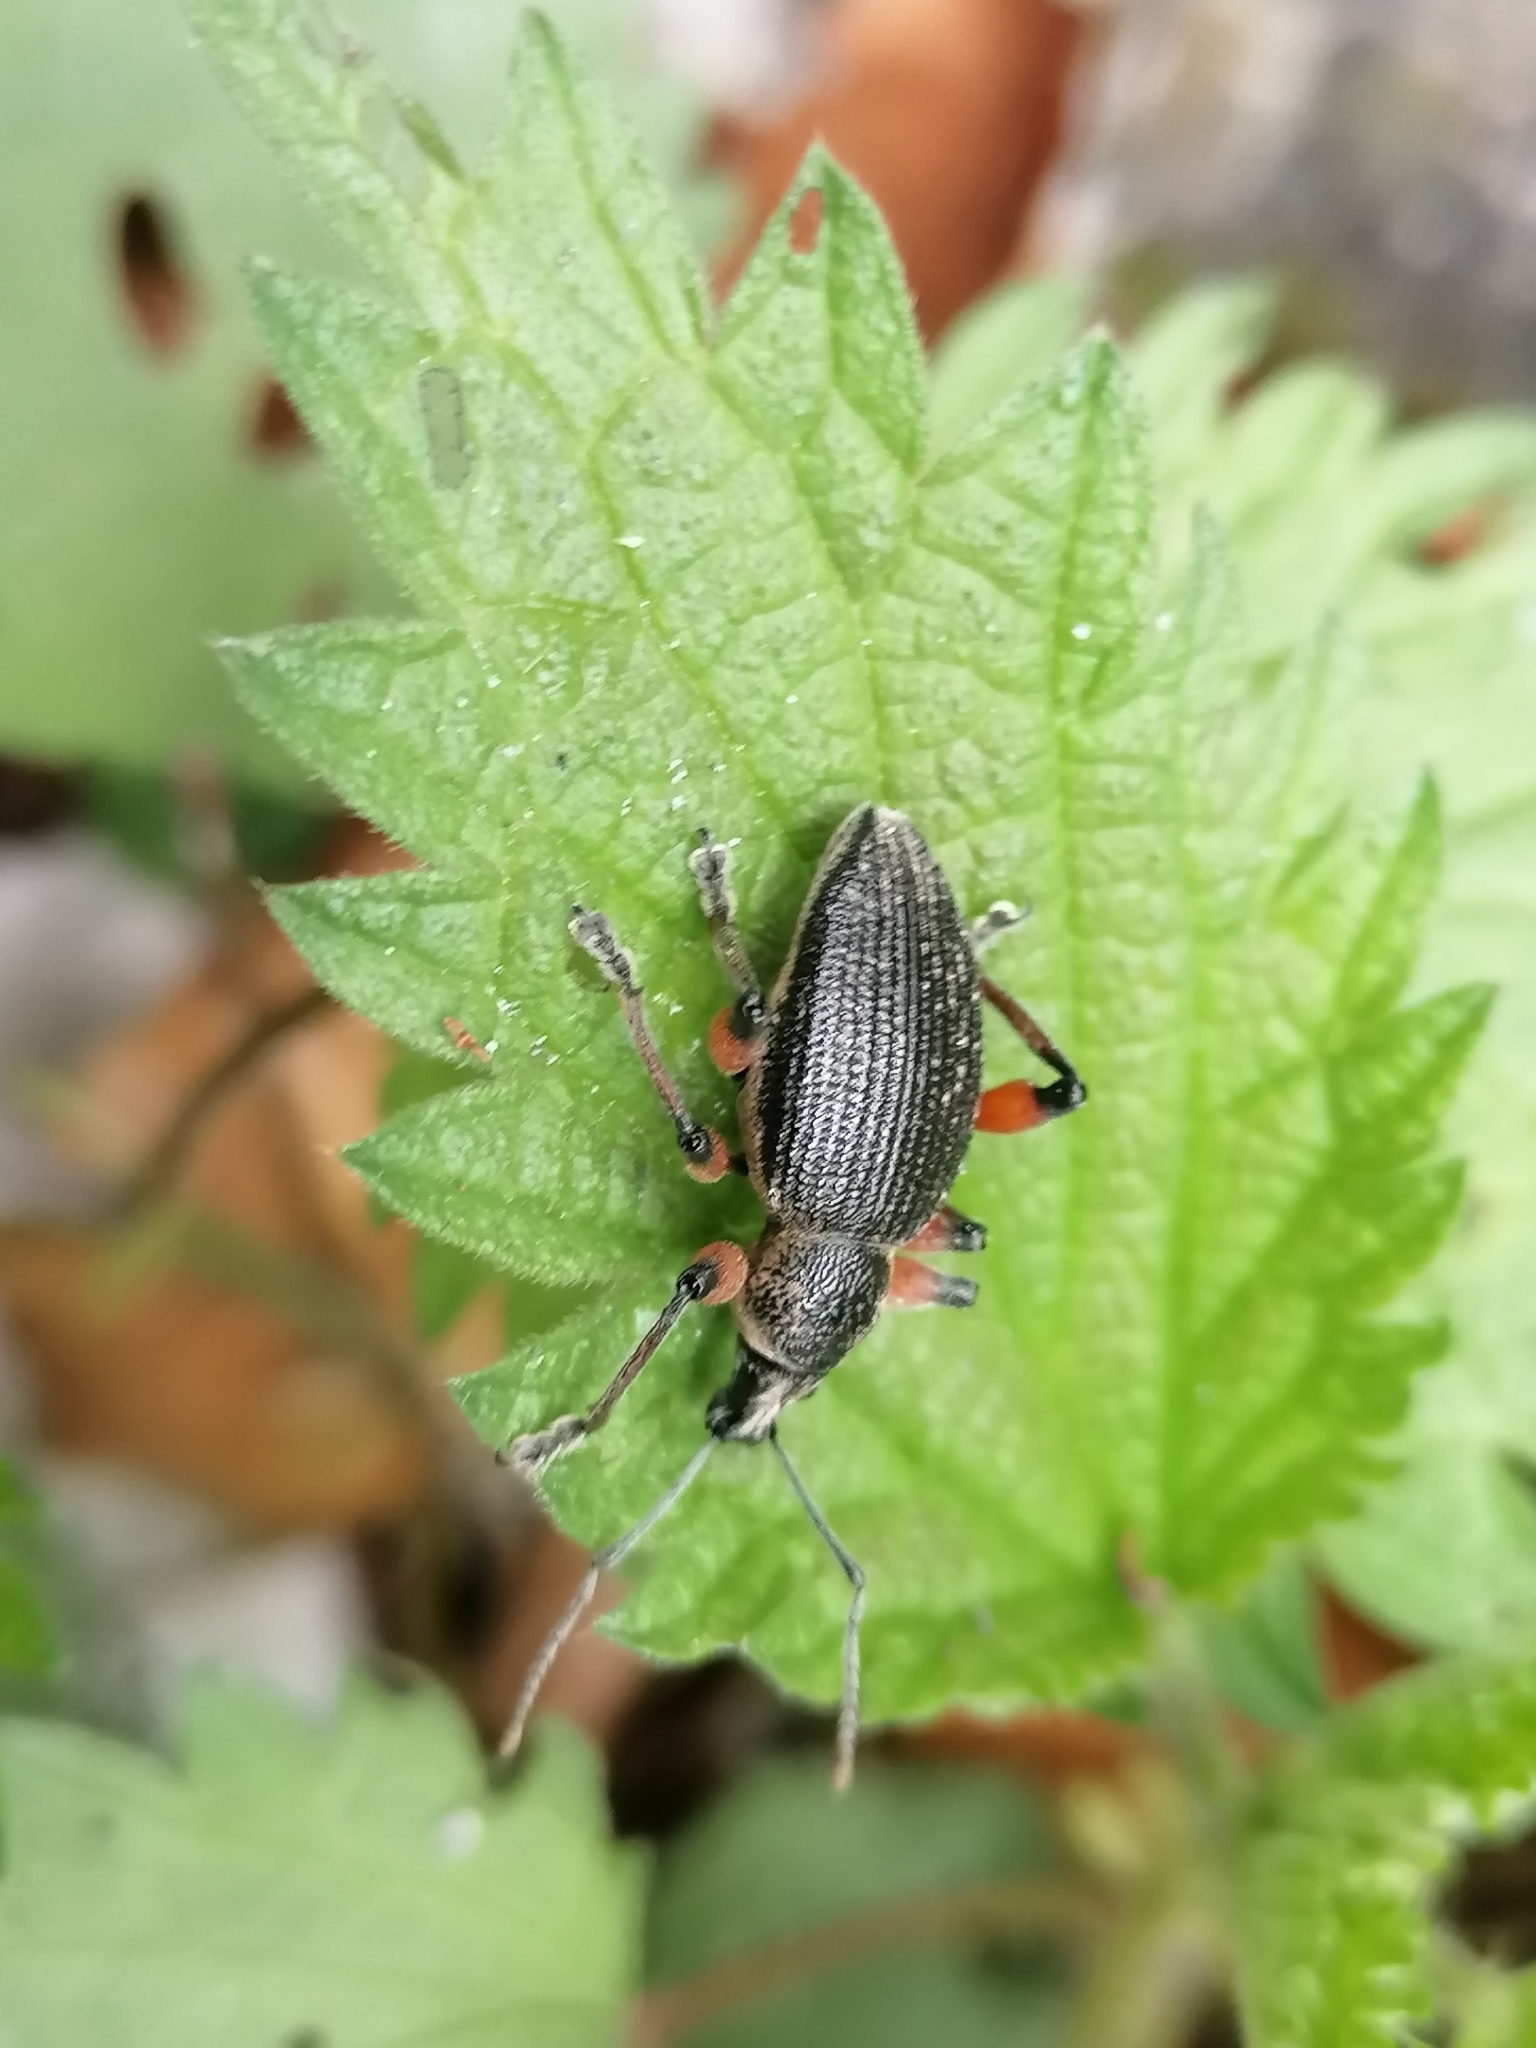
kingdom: Animalia
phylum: Arthropoda
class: Insecta
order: Coleoptera
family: Curculionidae
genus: Otiorhynchus
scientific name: Otiorhynchus sensitivus
